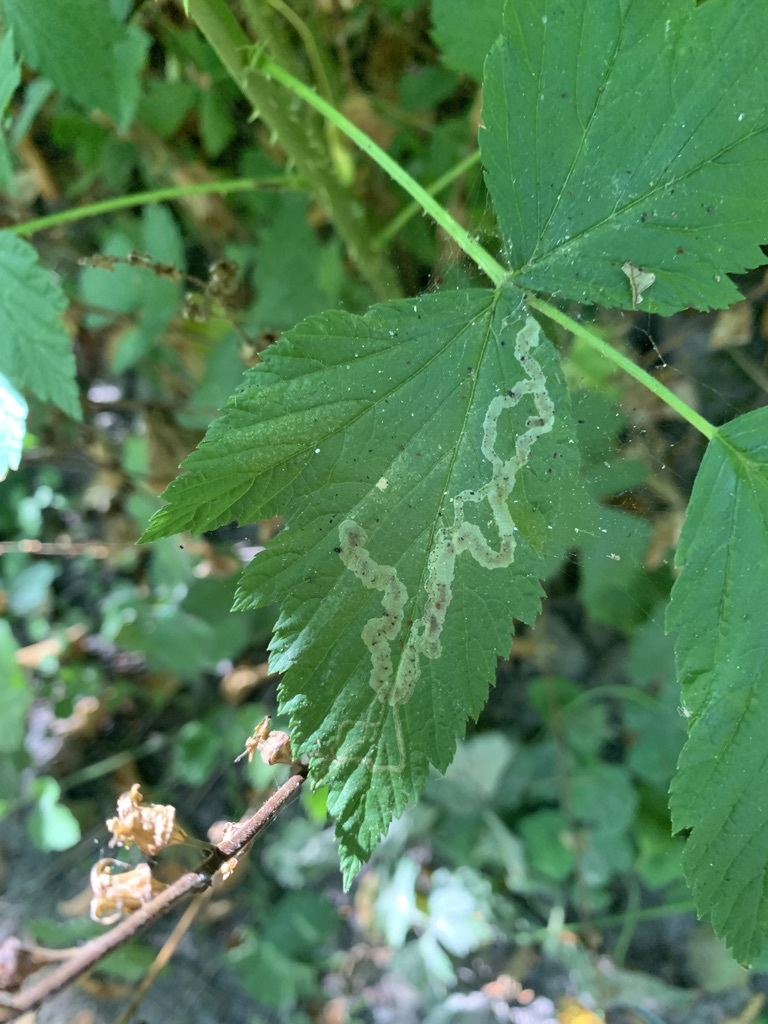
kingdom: Animalia
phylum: Arthropoda
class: Insecta
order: Diptera
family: Agromyzidae
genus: Agromyza
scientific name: Agromyza vockerothi
